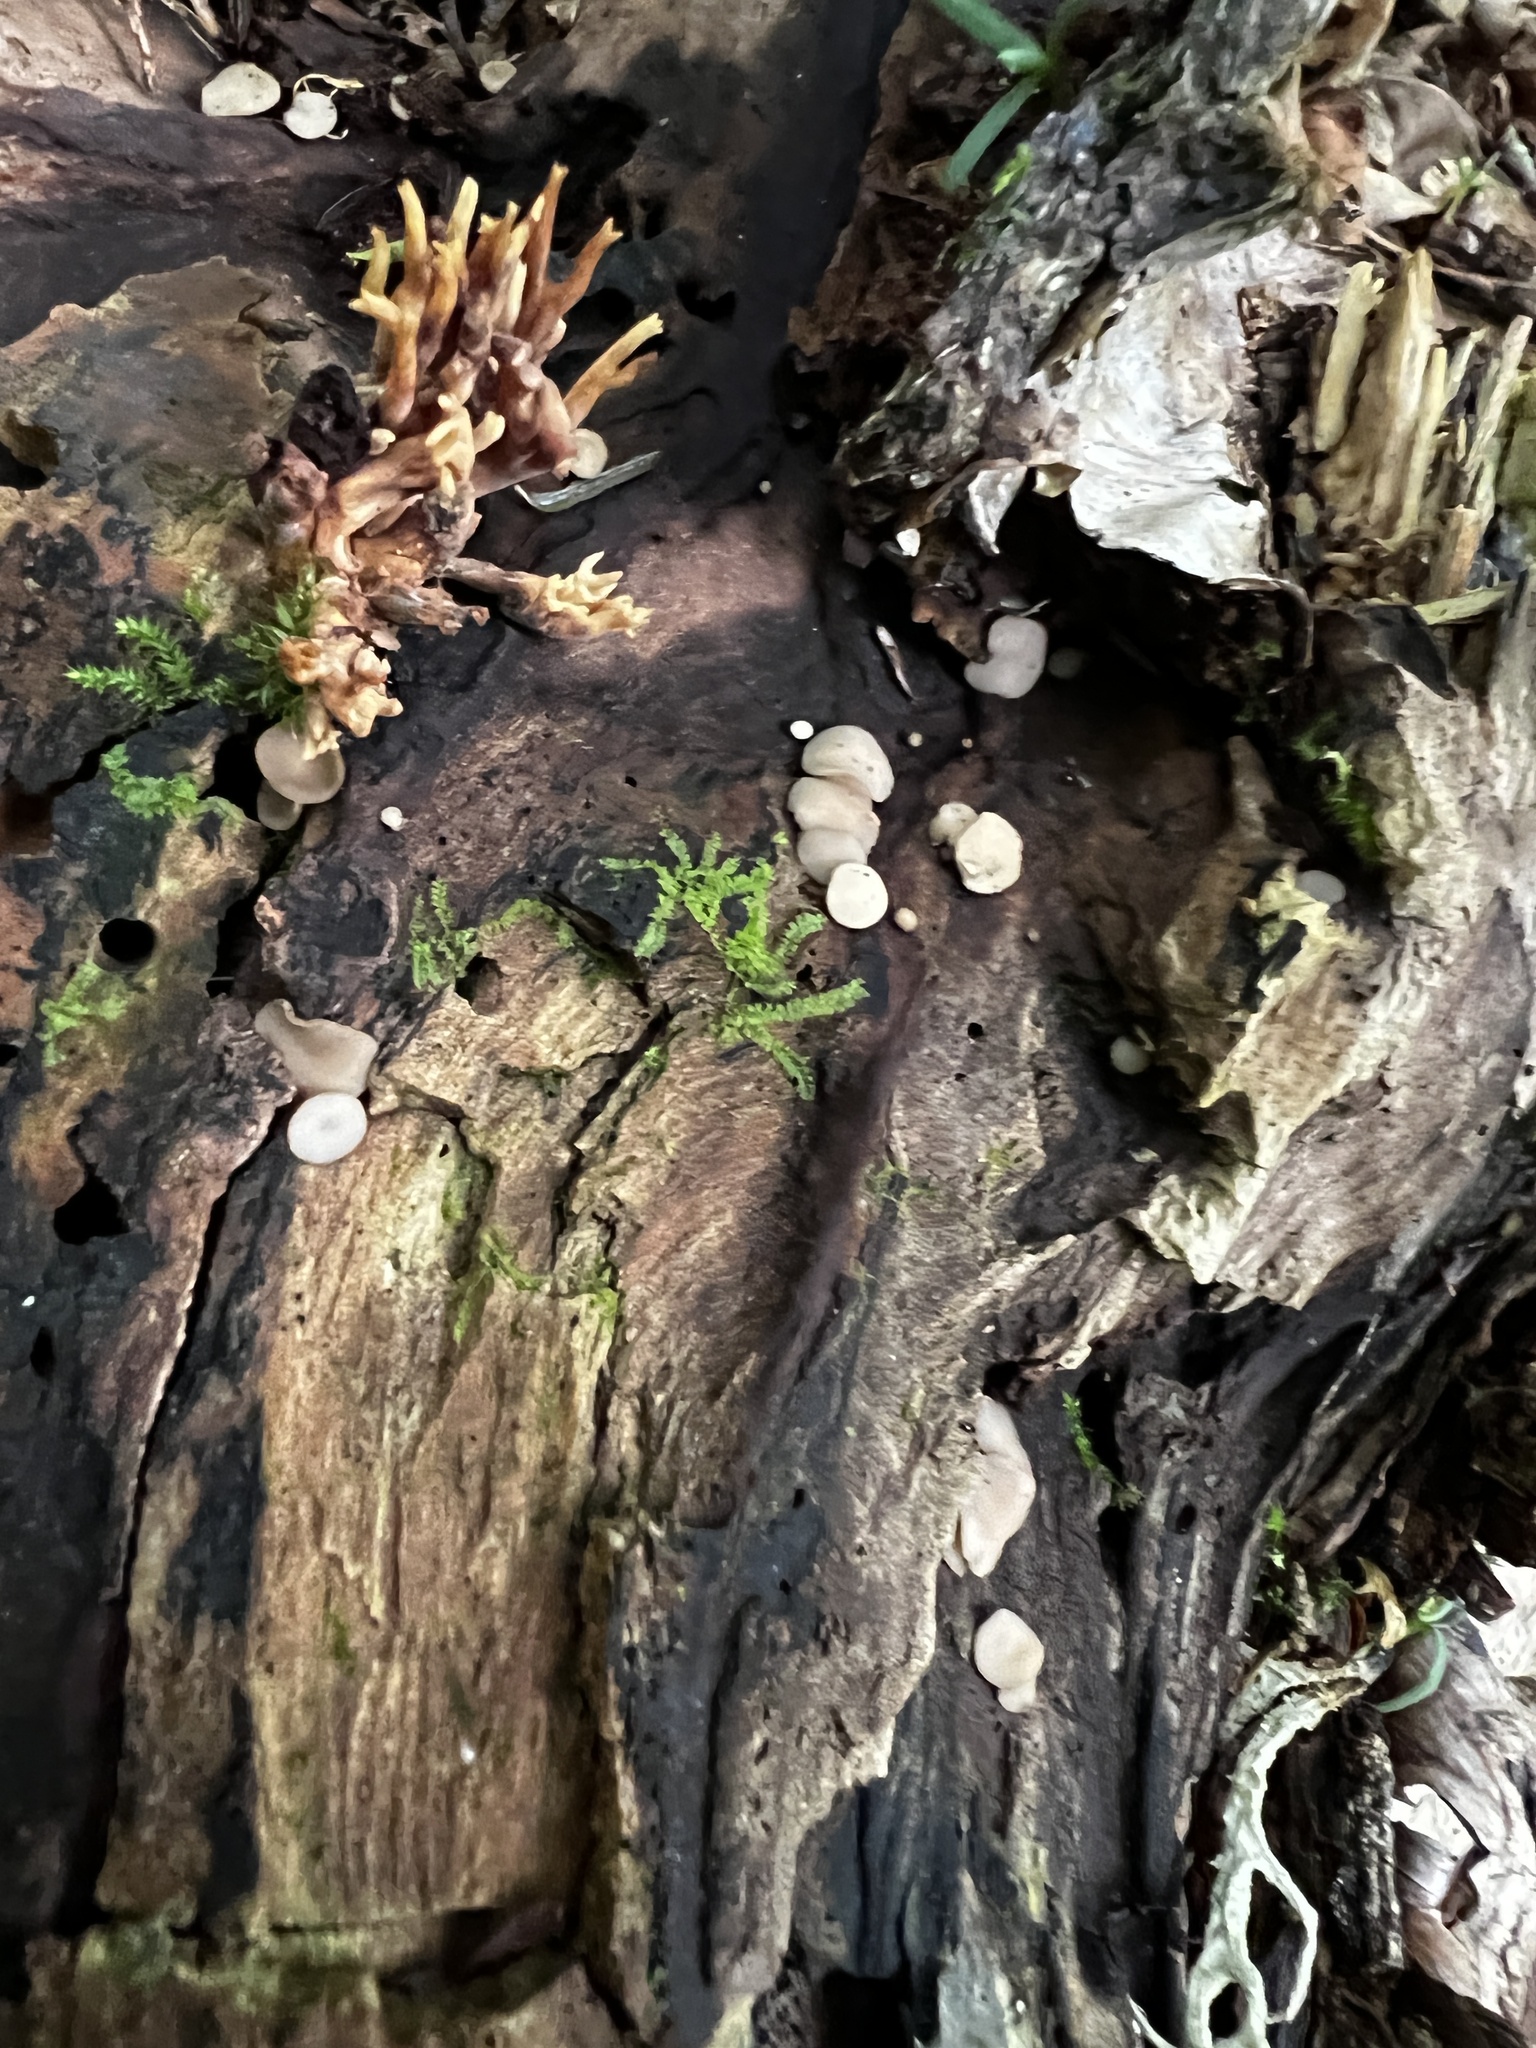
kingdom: Fungi
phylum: Ascomycota
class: Leotiomycetes
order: Helotiales
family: Helotiaceae
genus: Tatraea
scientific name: Tatraea macrospora
